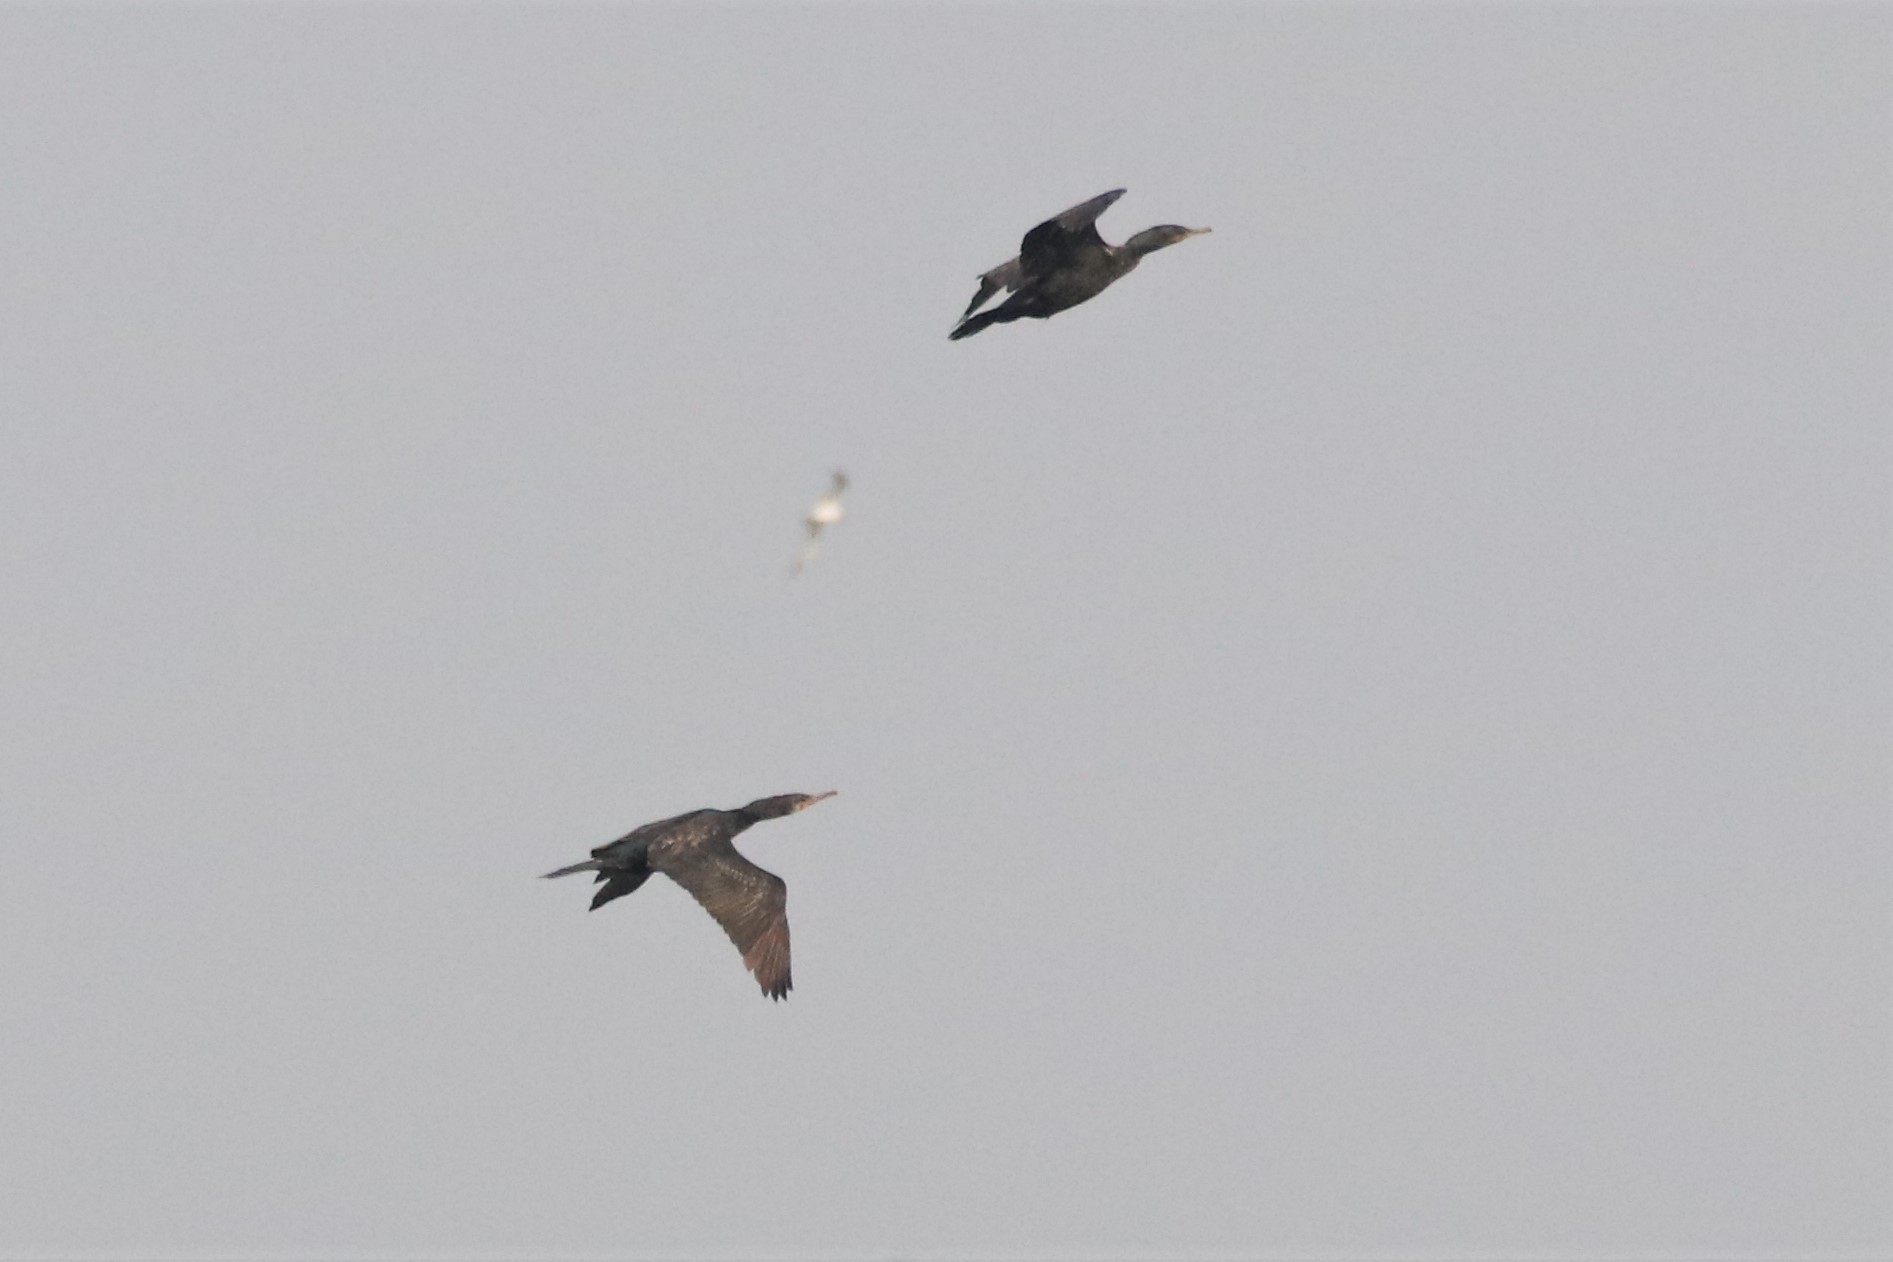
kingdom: Animalia
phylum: Chordata
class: Aves
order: Suliformes
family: Phalacrocoracidae
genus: Phalacrocorax
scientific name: Phalacrocorax fuscicollis
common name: Indian cormorant
